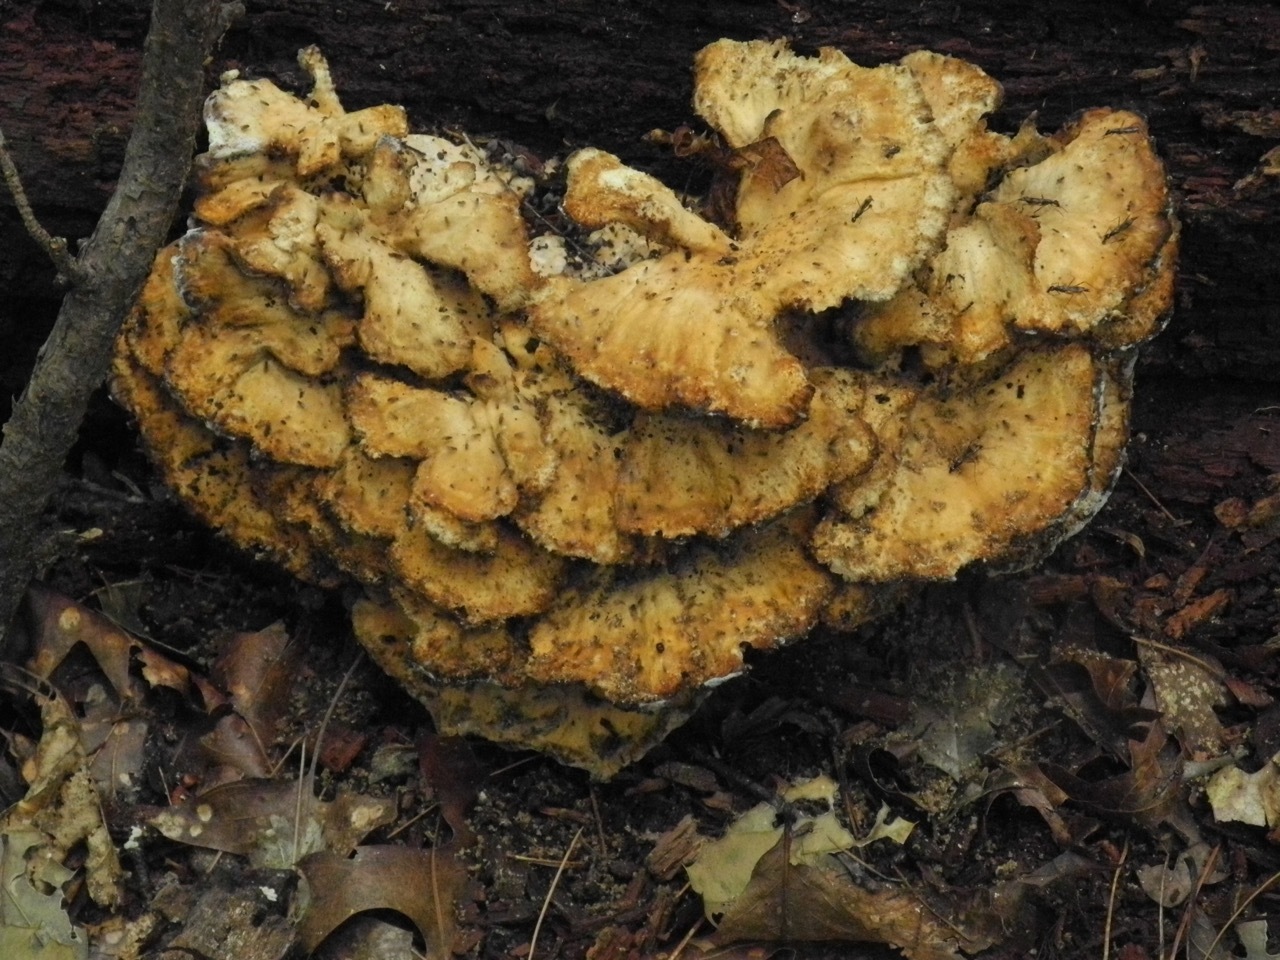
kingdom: Animalia
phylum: Arthropoda
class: Insecta
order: Diptera
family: Micropezidae
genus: Rainieria
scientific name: Rainieria antennaepes
